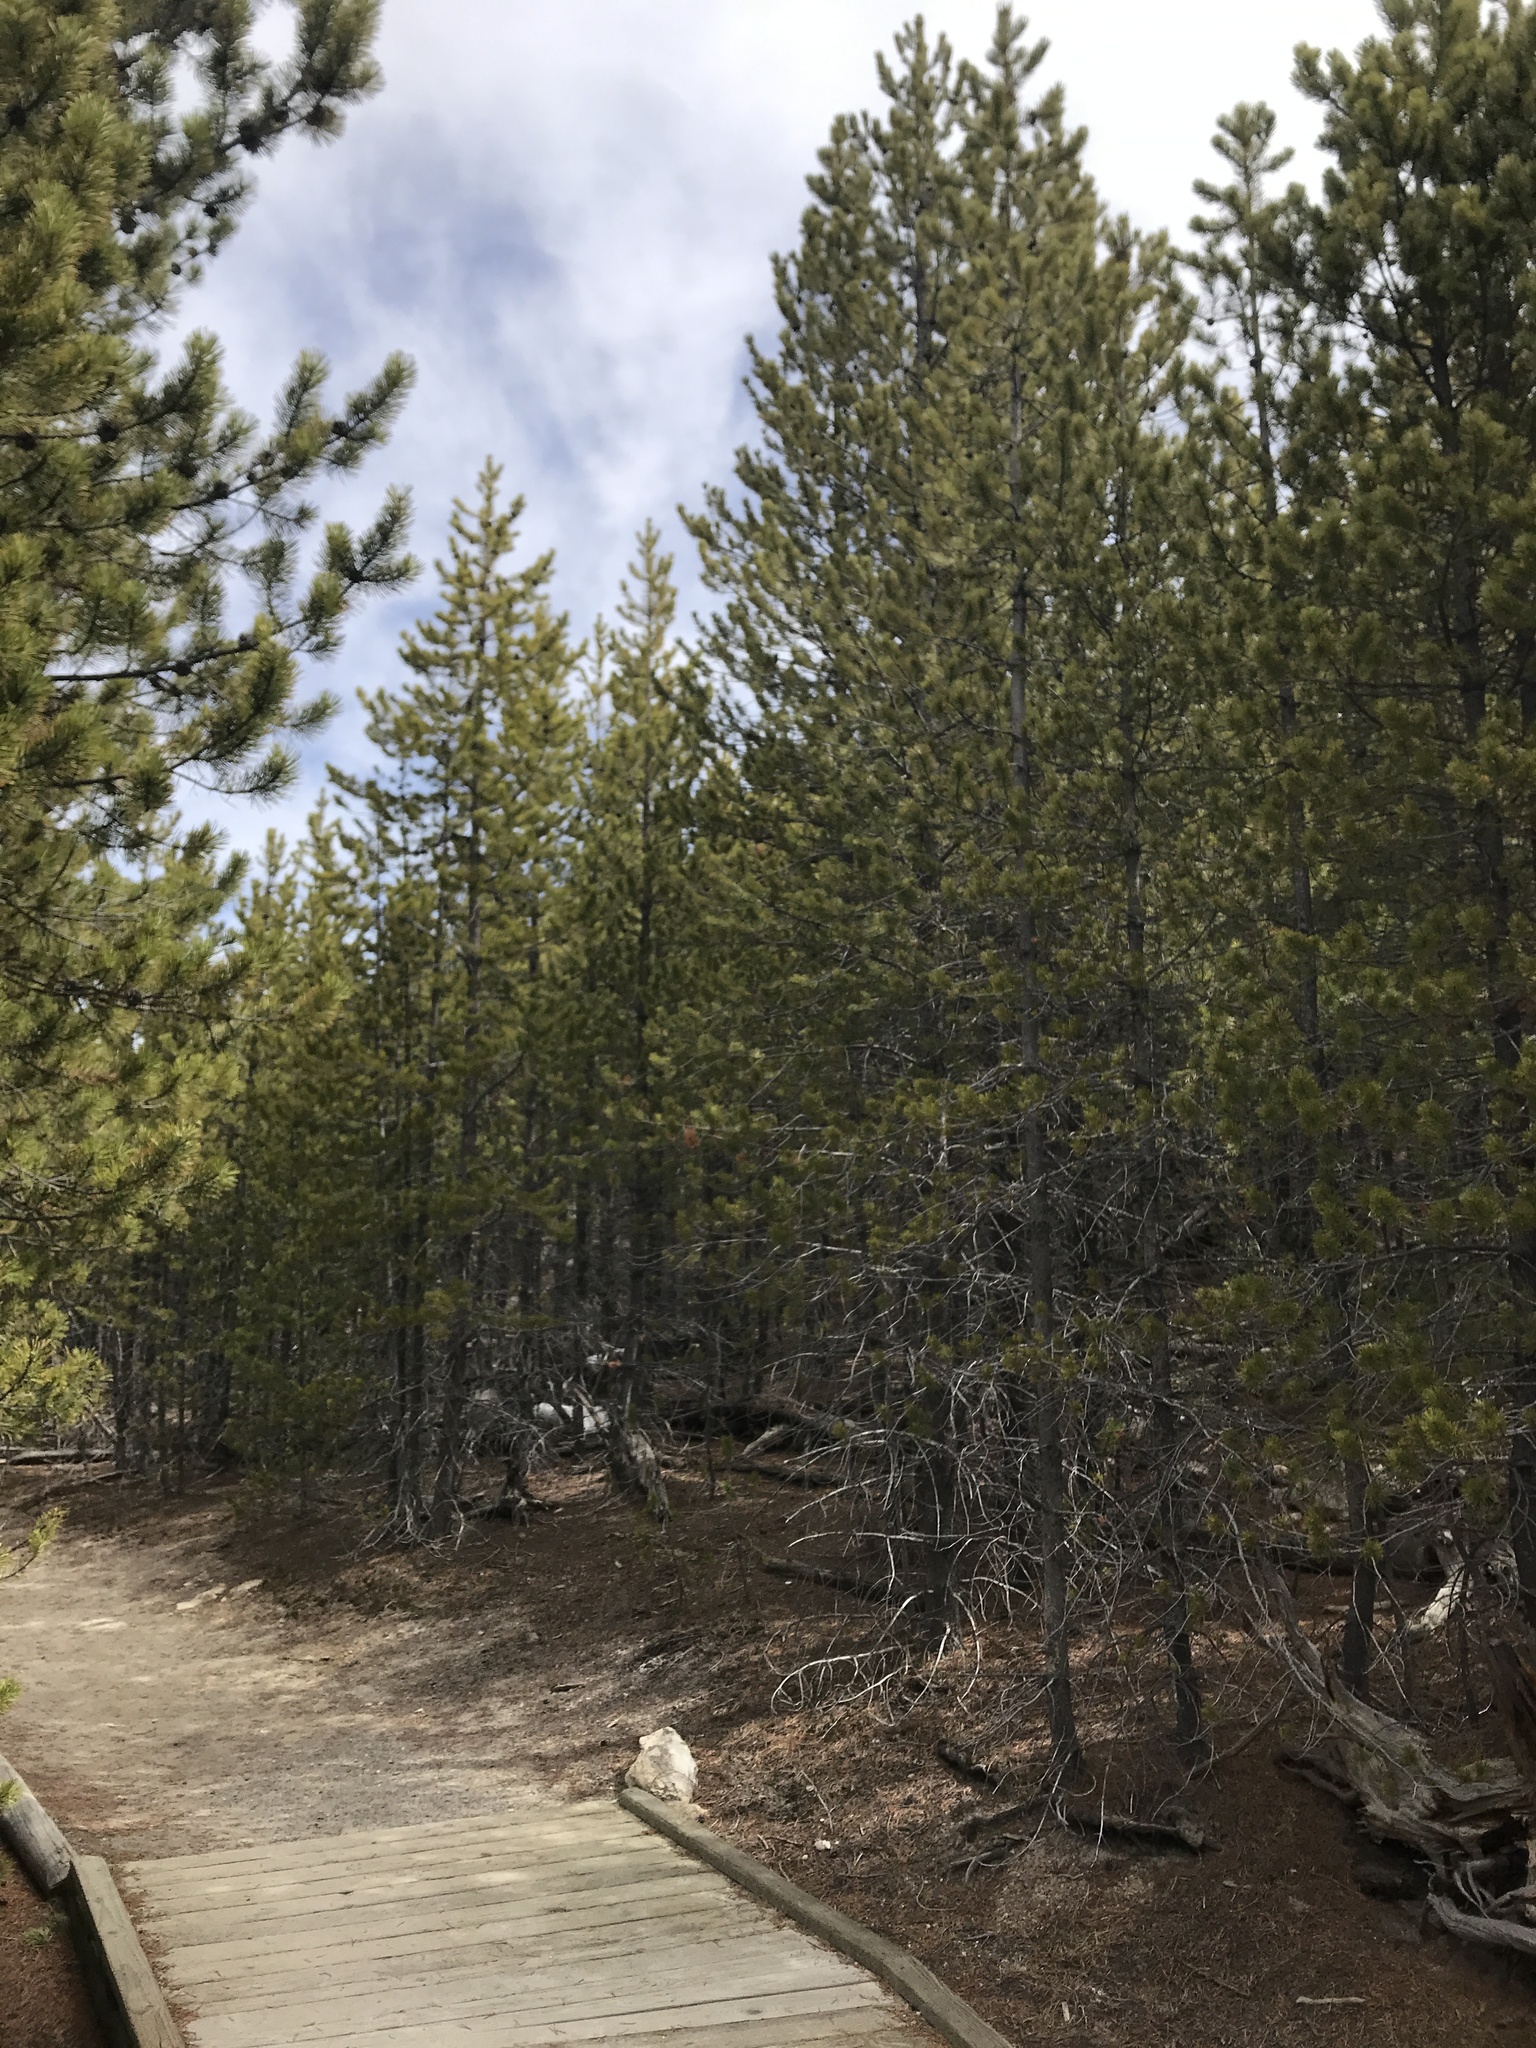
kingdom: Plantae
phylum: Tracheophyta
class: Pinopsida
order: Pinales
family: Pinaceae
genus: Pinus
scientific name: Pinus contorta
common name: Lodgepole pine
